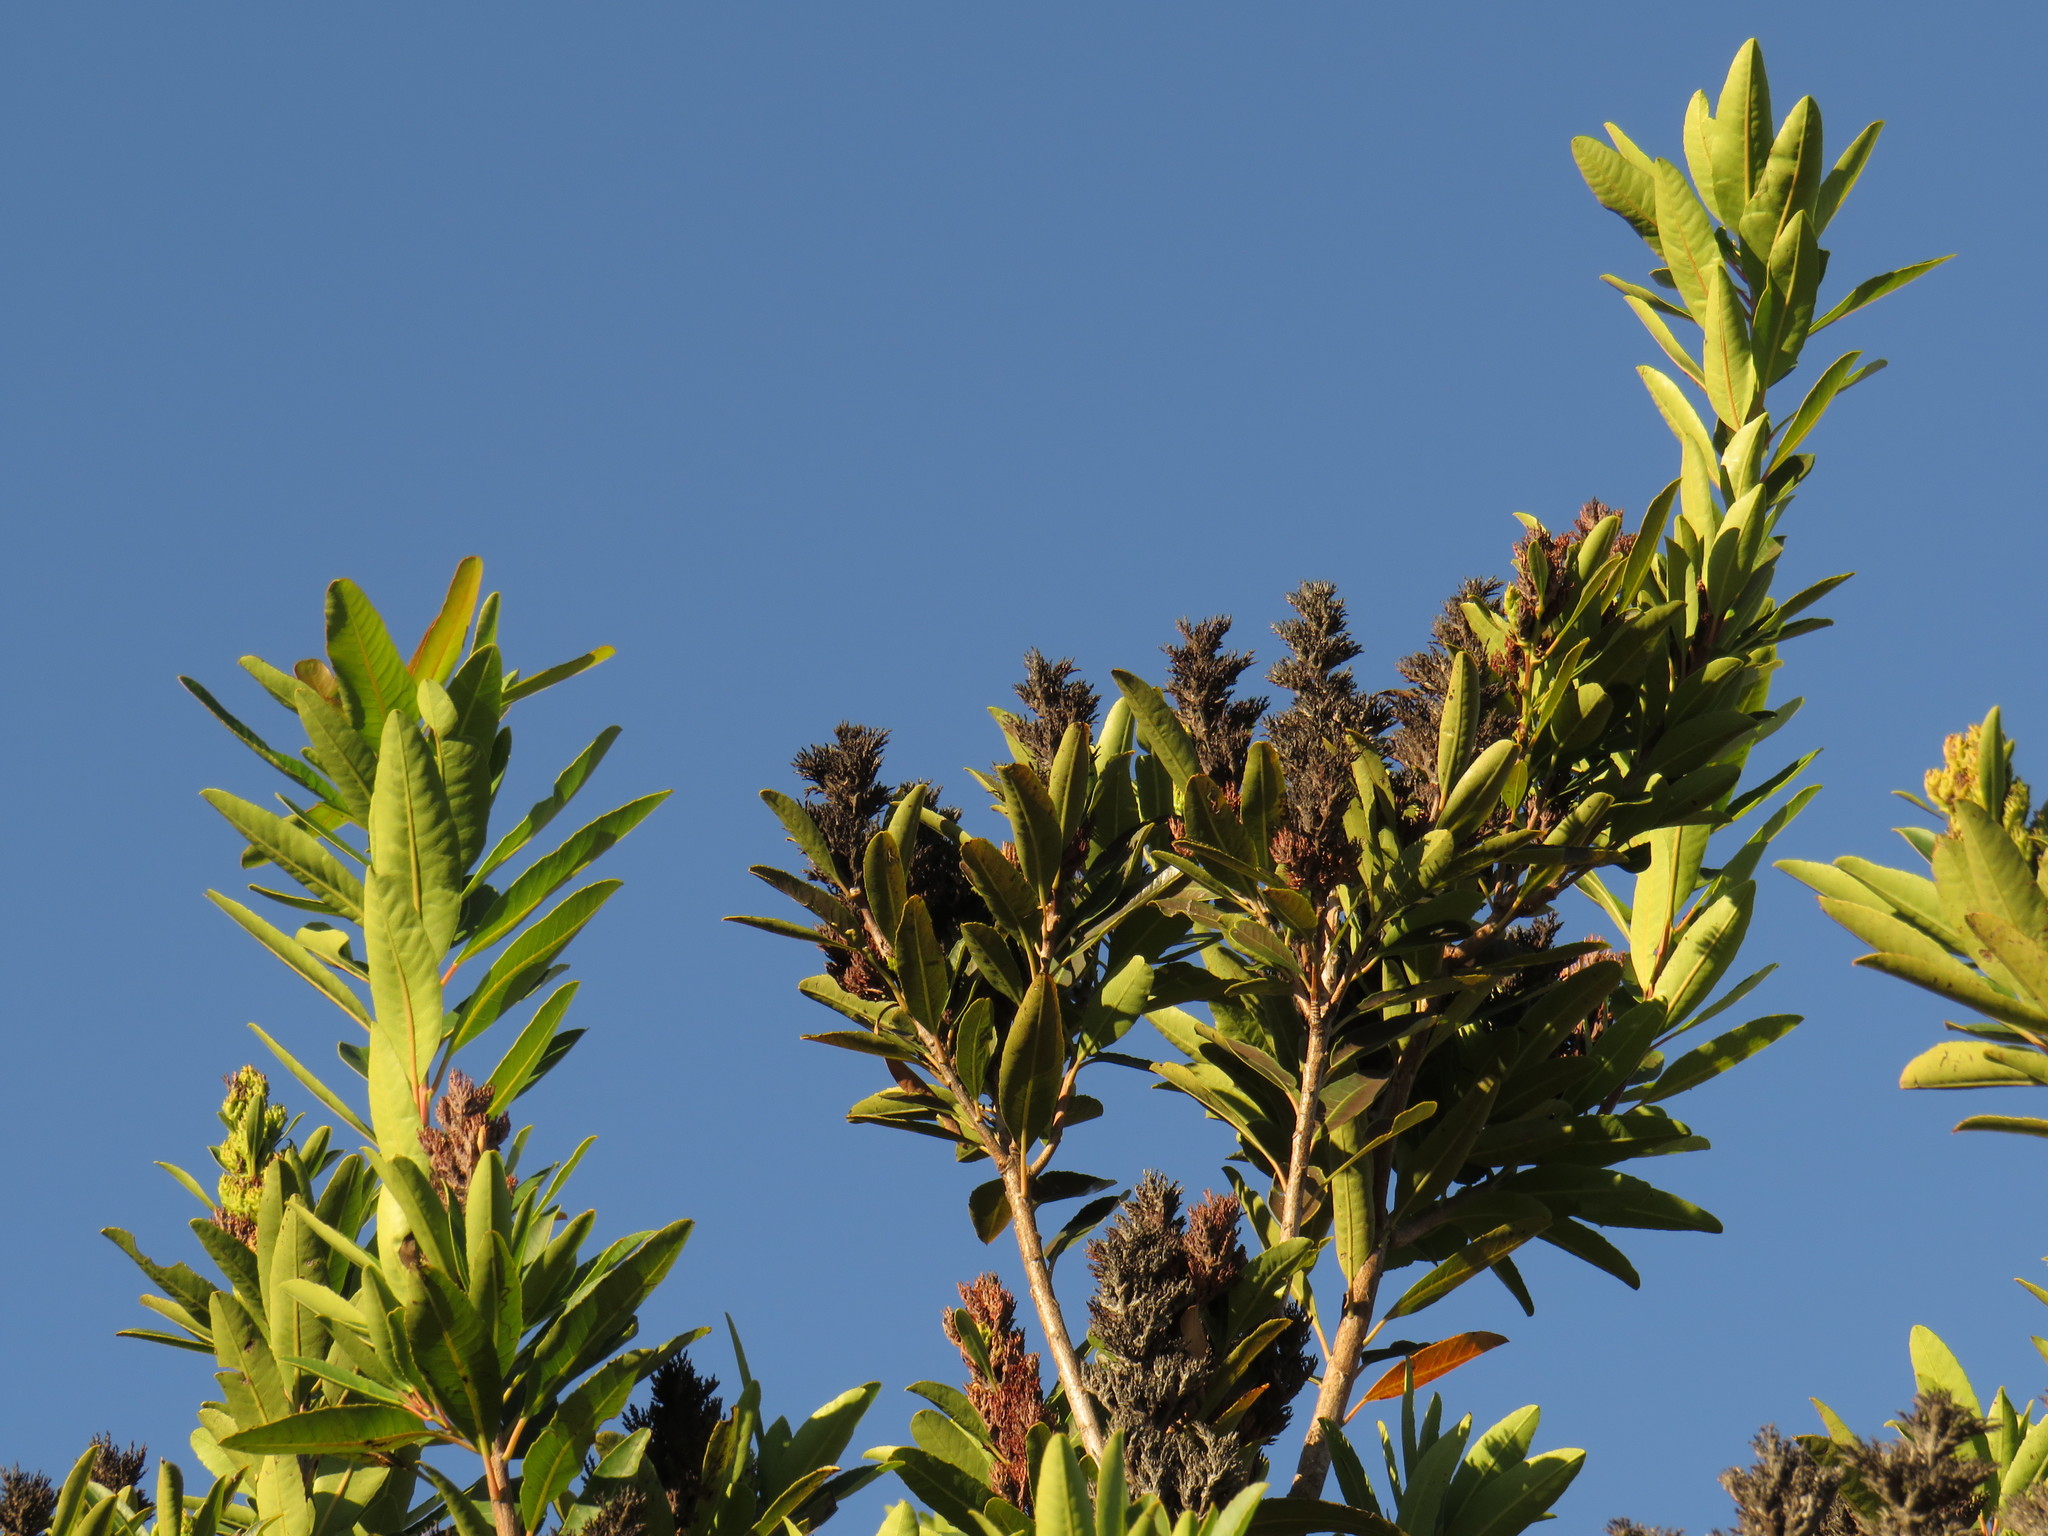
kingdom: Plantae
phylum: Tracheophyta
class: Magnoliopsida
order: Sapindales
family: Anacardiaceae
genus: Laurophyllus
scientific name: Laurophyllus capensis
